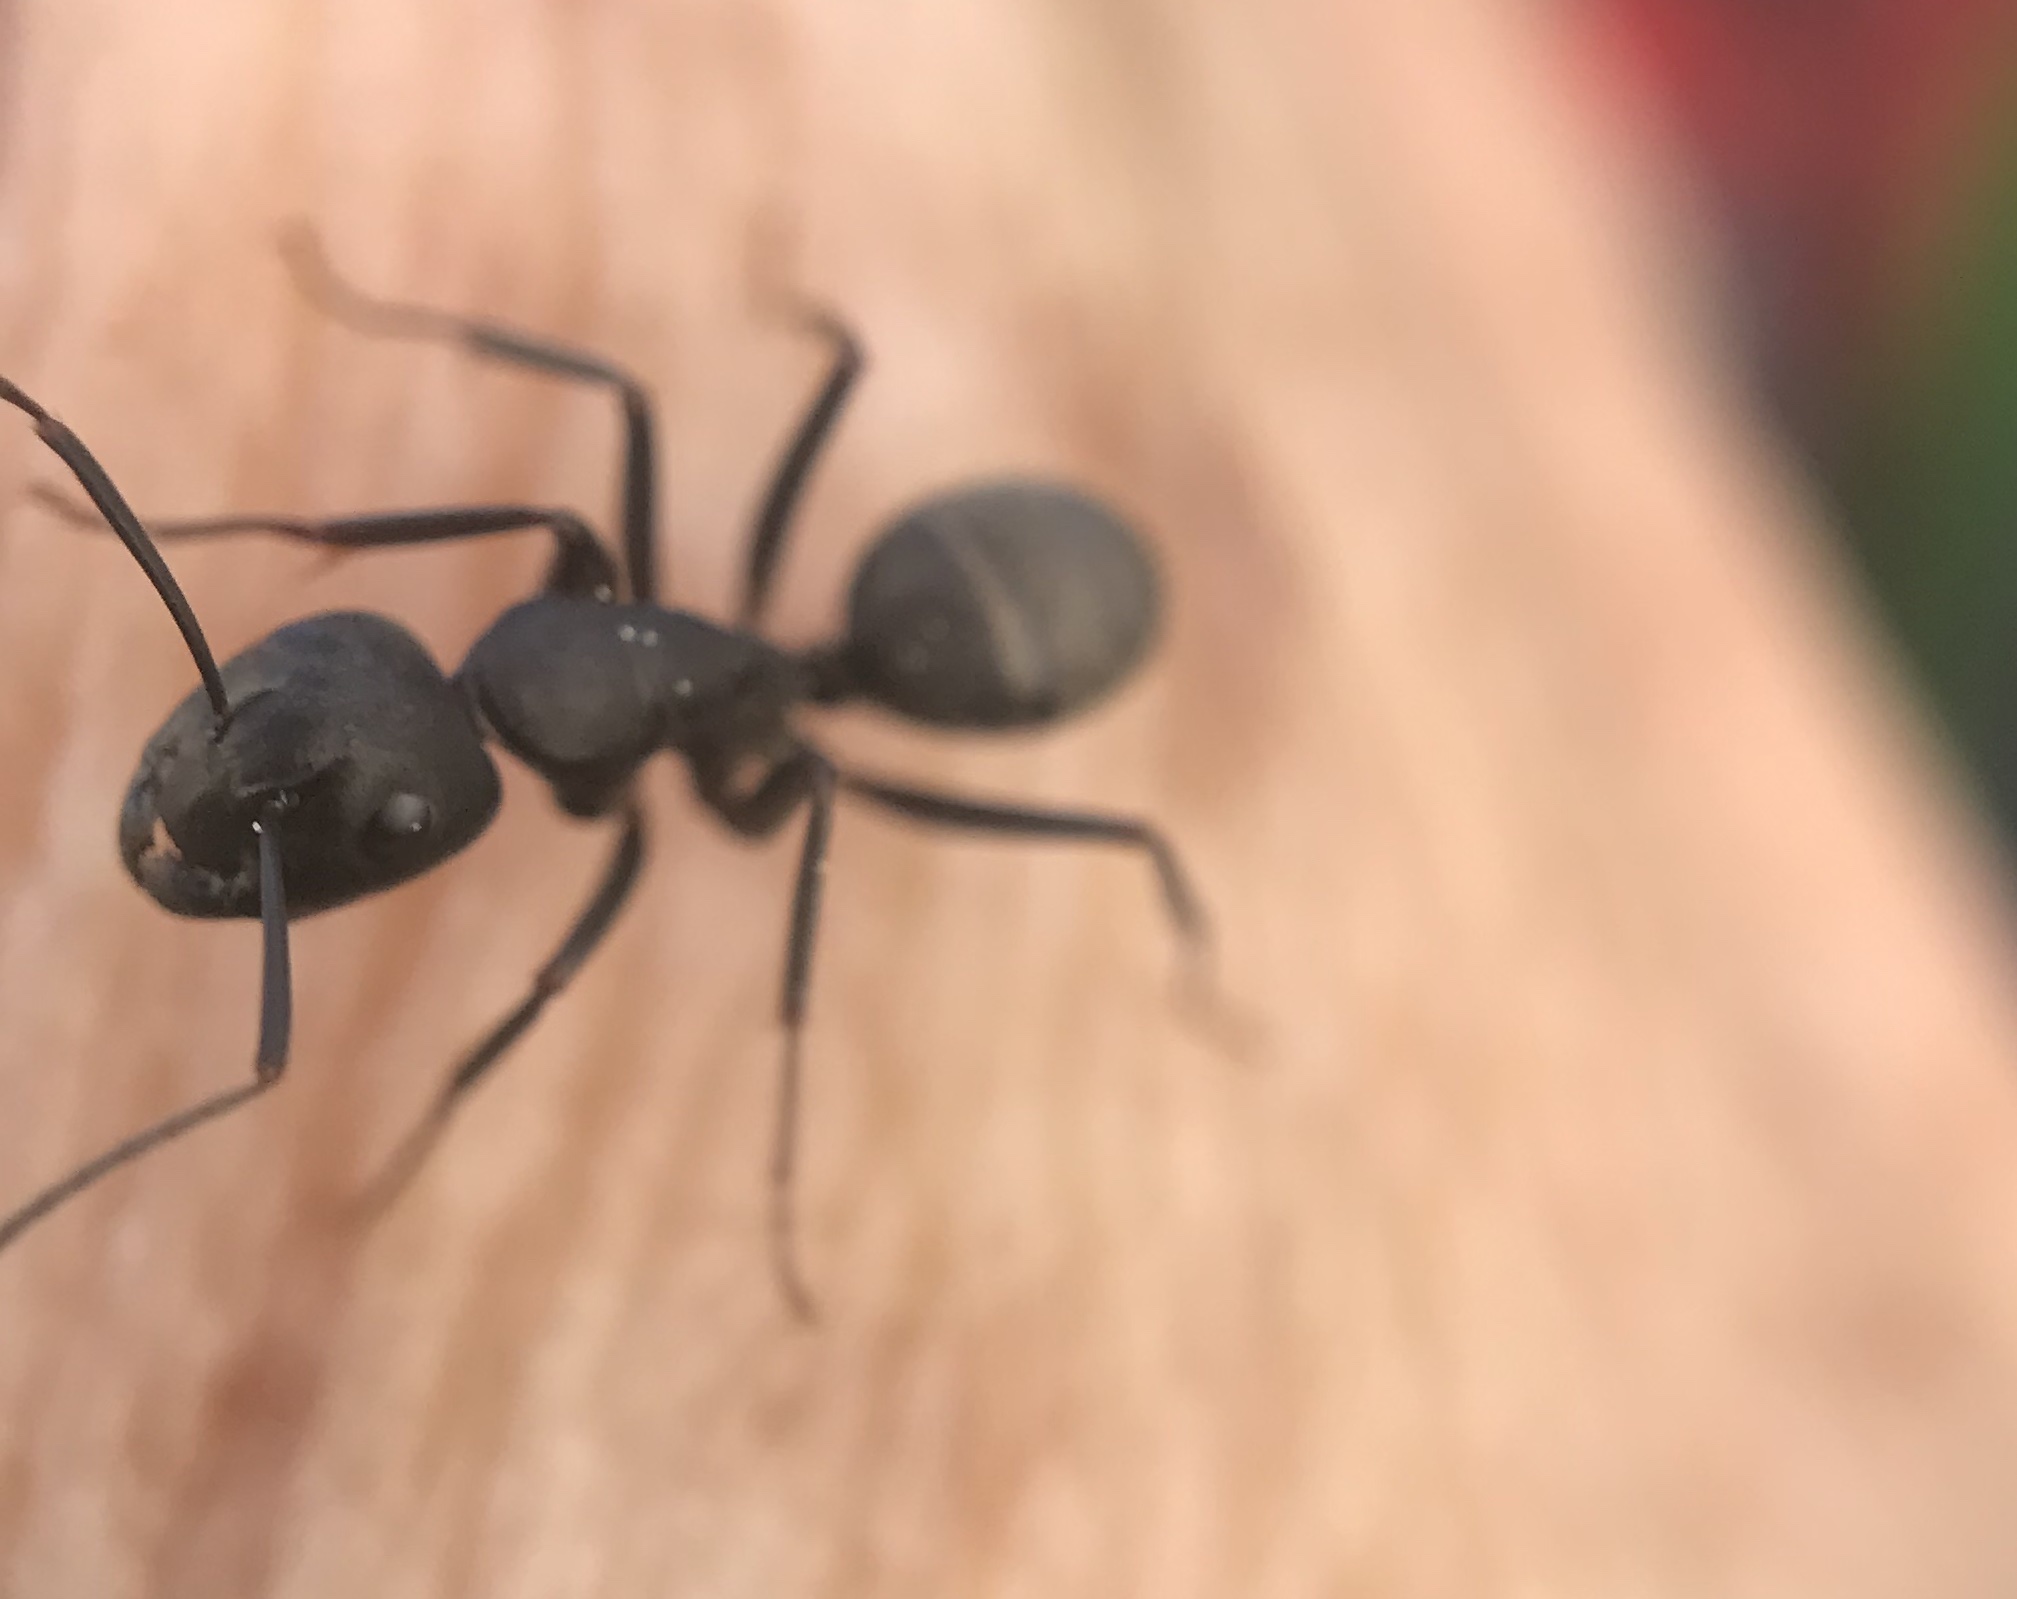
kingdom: Animalia
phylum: Arthropoda
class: Insecta
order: Hymenoptera
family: Formicidae
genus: Camponotus
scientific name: Camponotus pennsylvanicus
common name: Black carpenter ant
